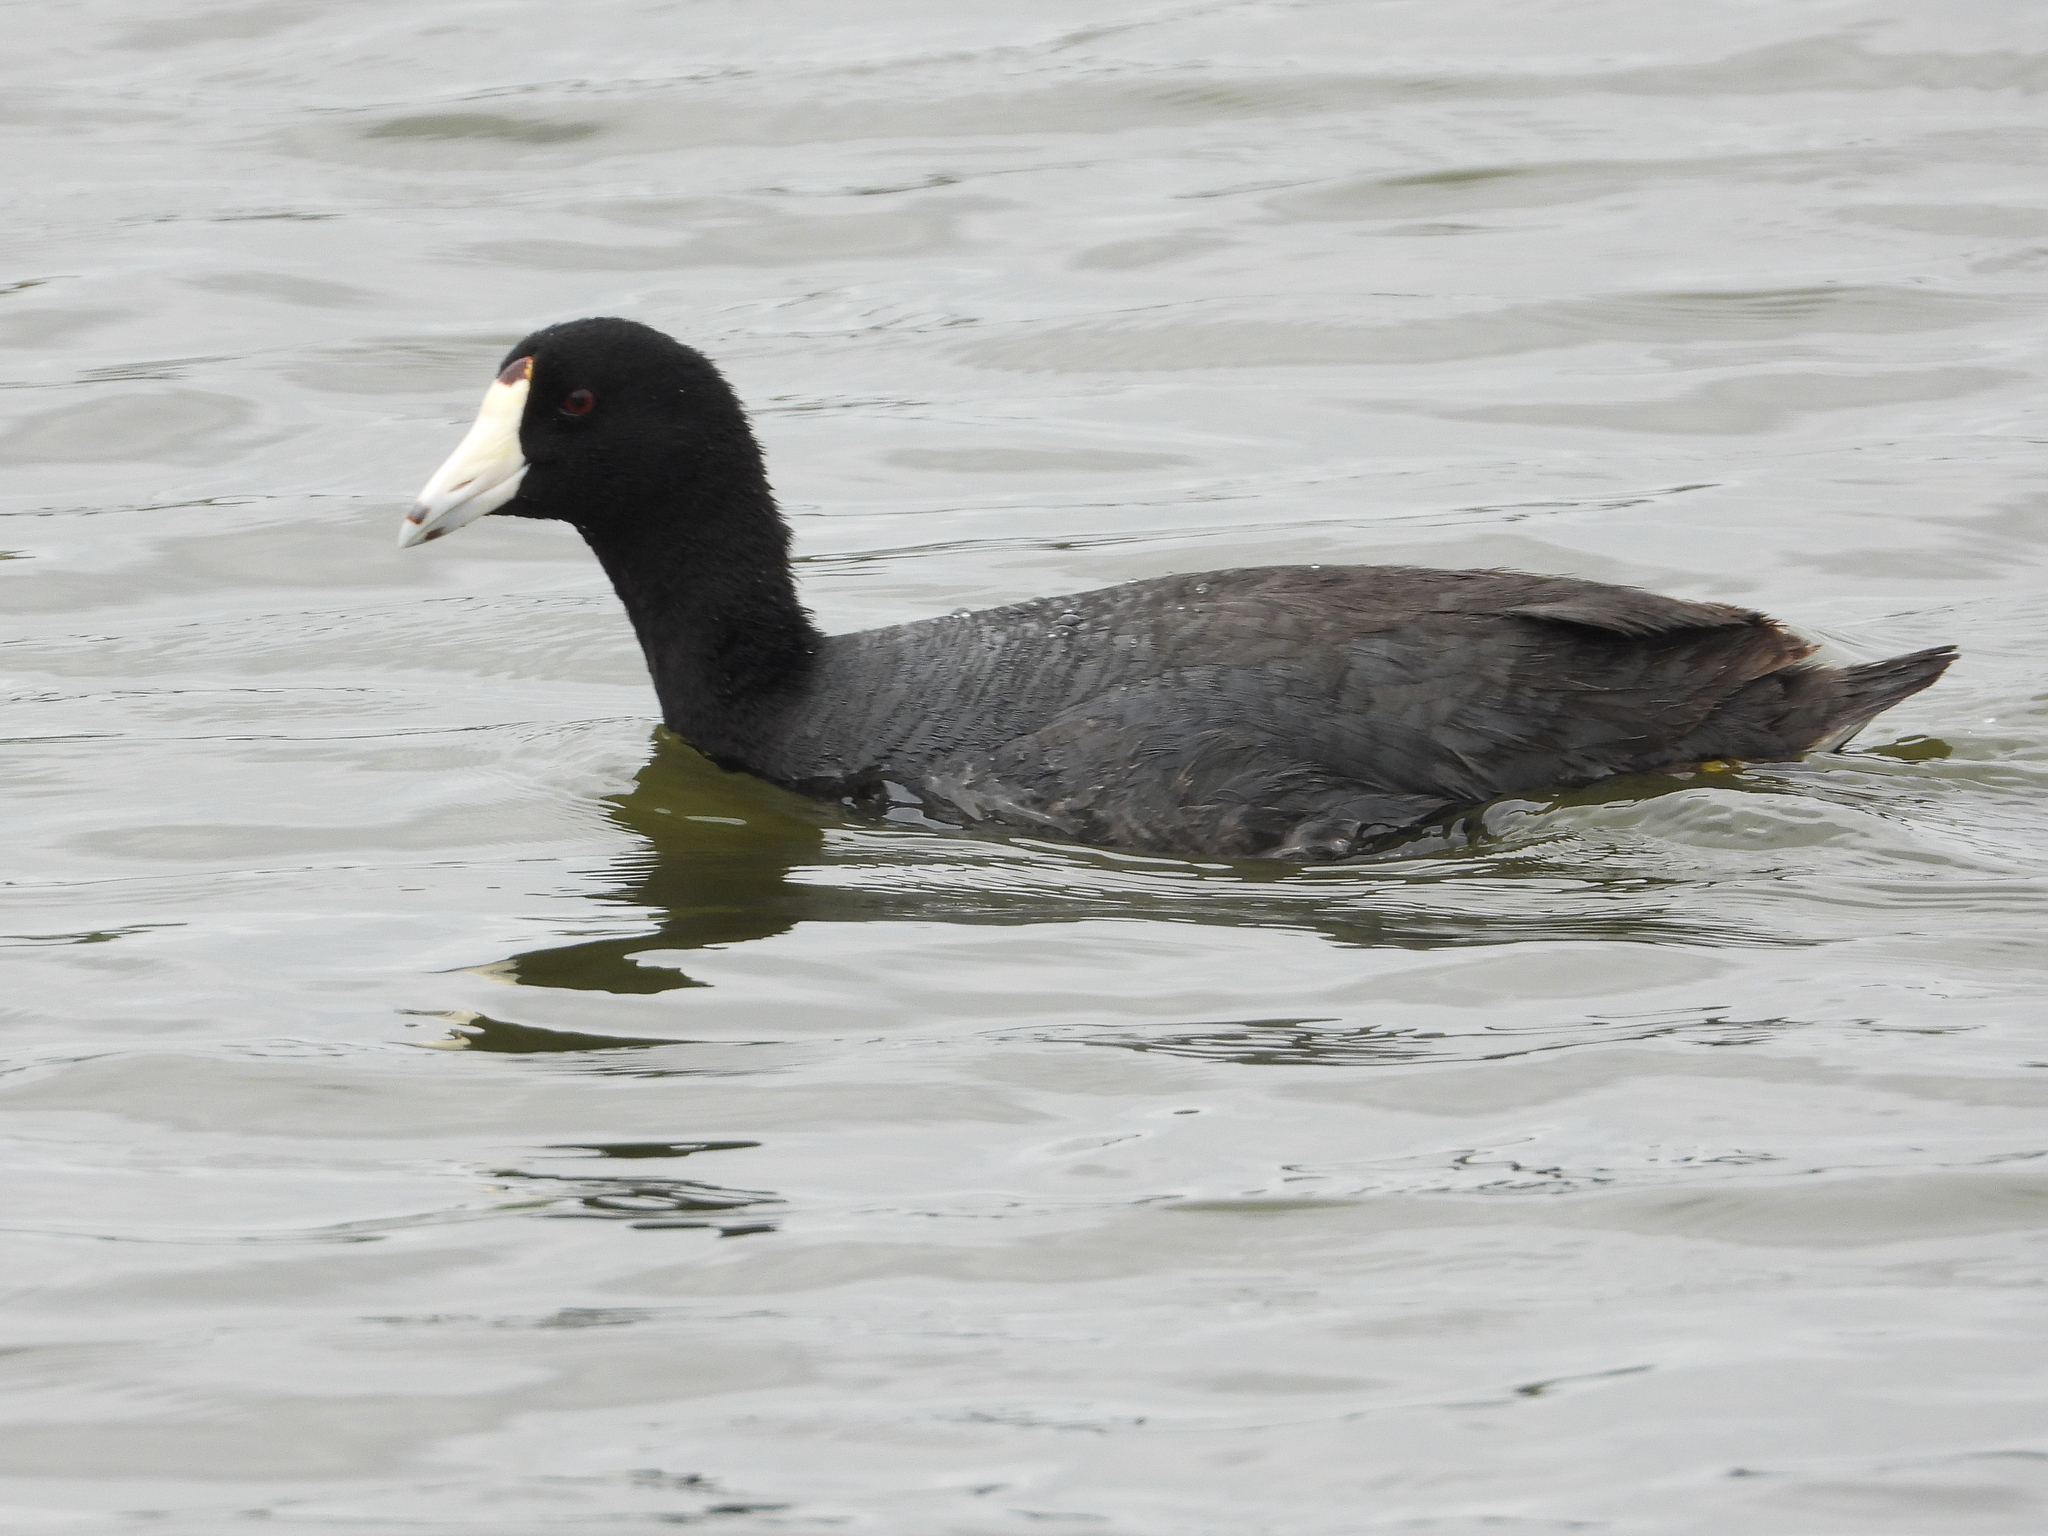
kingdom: Animalia
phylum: Chordata
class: Aves
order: Gruiformes
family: Rallidae
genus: Fulica
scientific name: Fulica americana
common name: American coot
